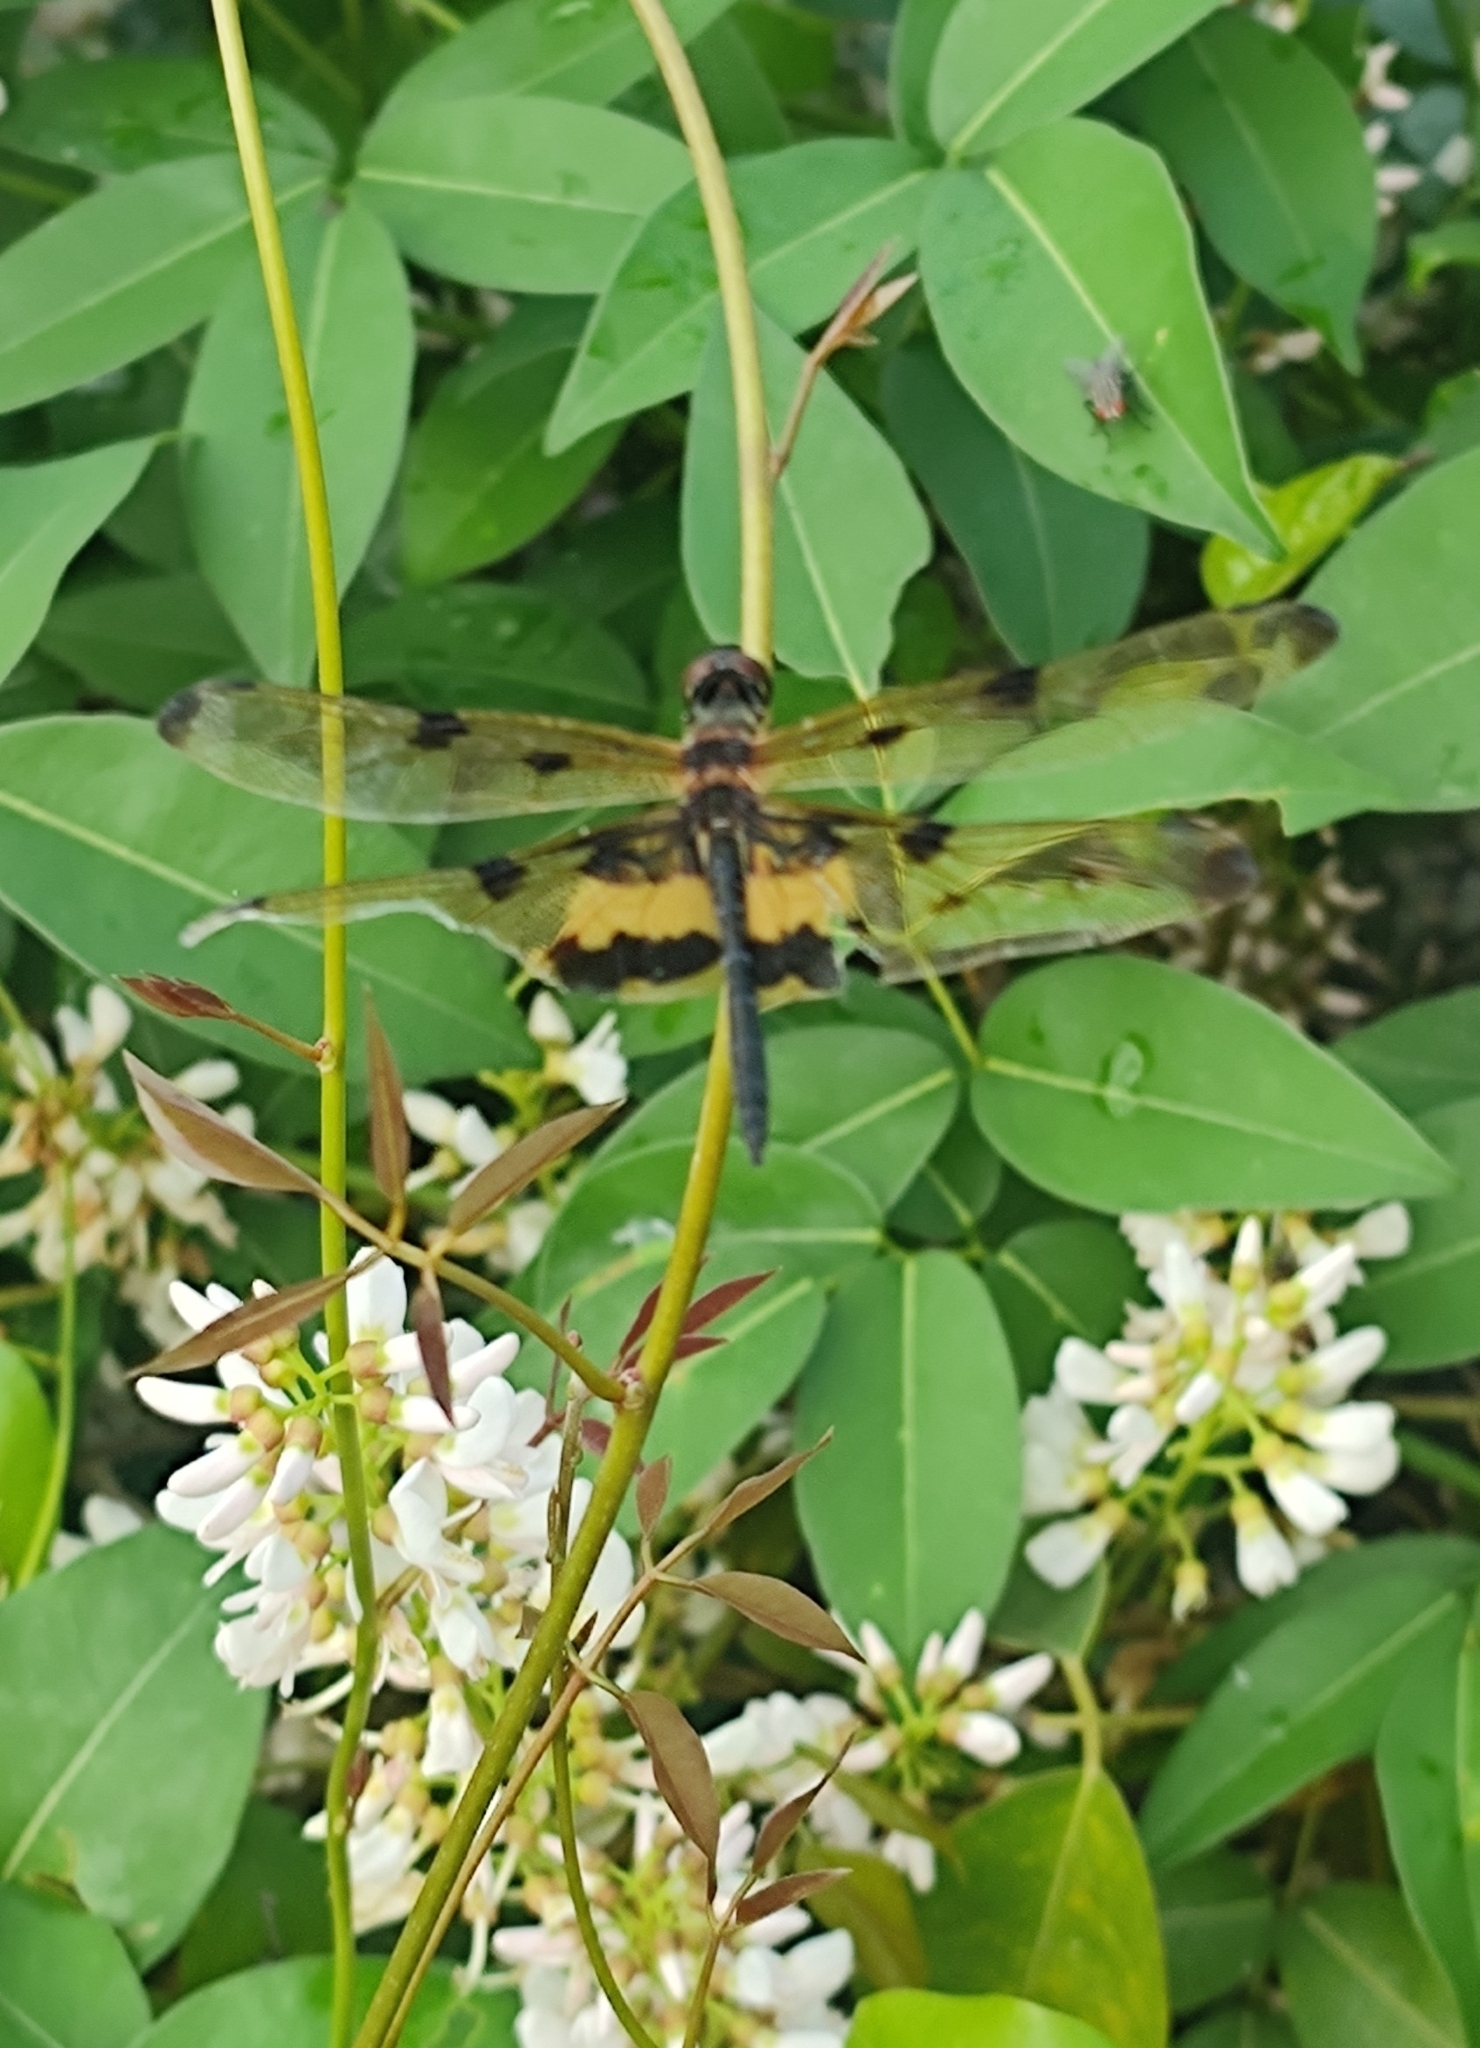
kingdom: Animalia
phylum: Arthropoda
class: Insecta
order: Odonata
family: Libellulidae
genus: Rhyothemis
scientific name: Rhyothemis variegata
